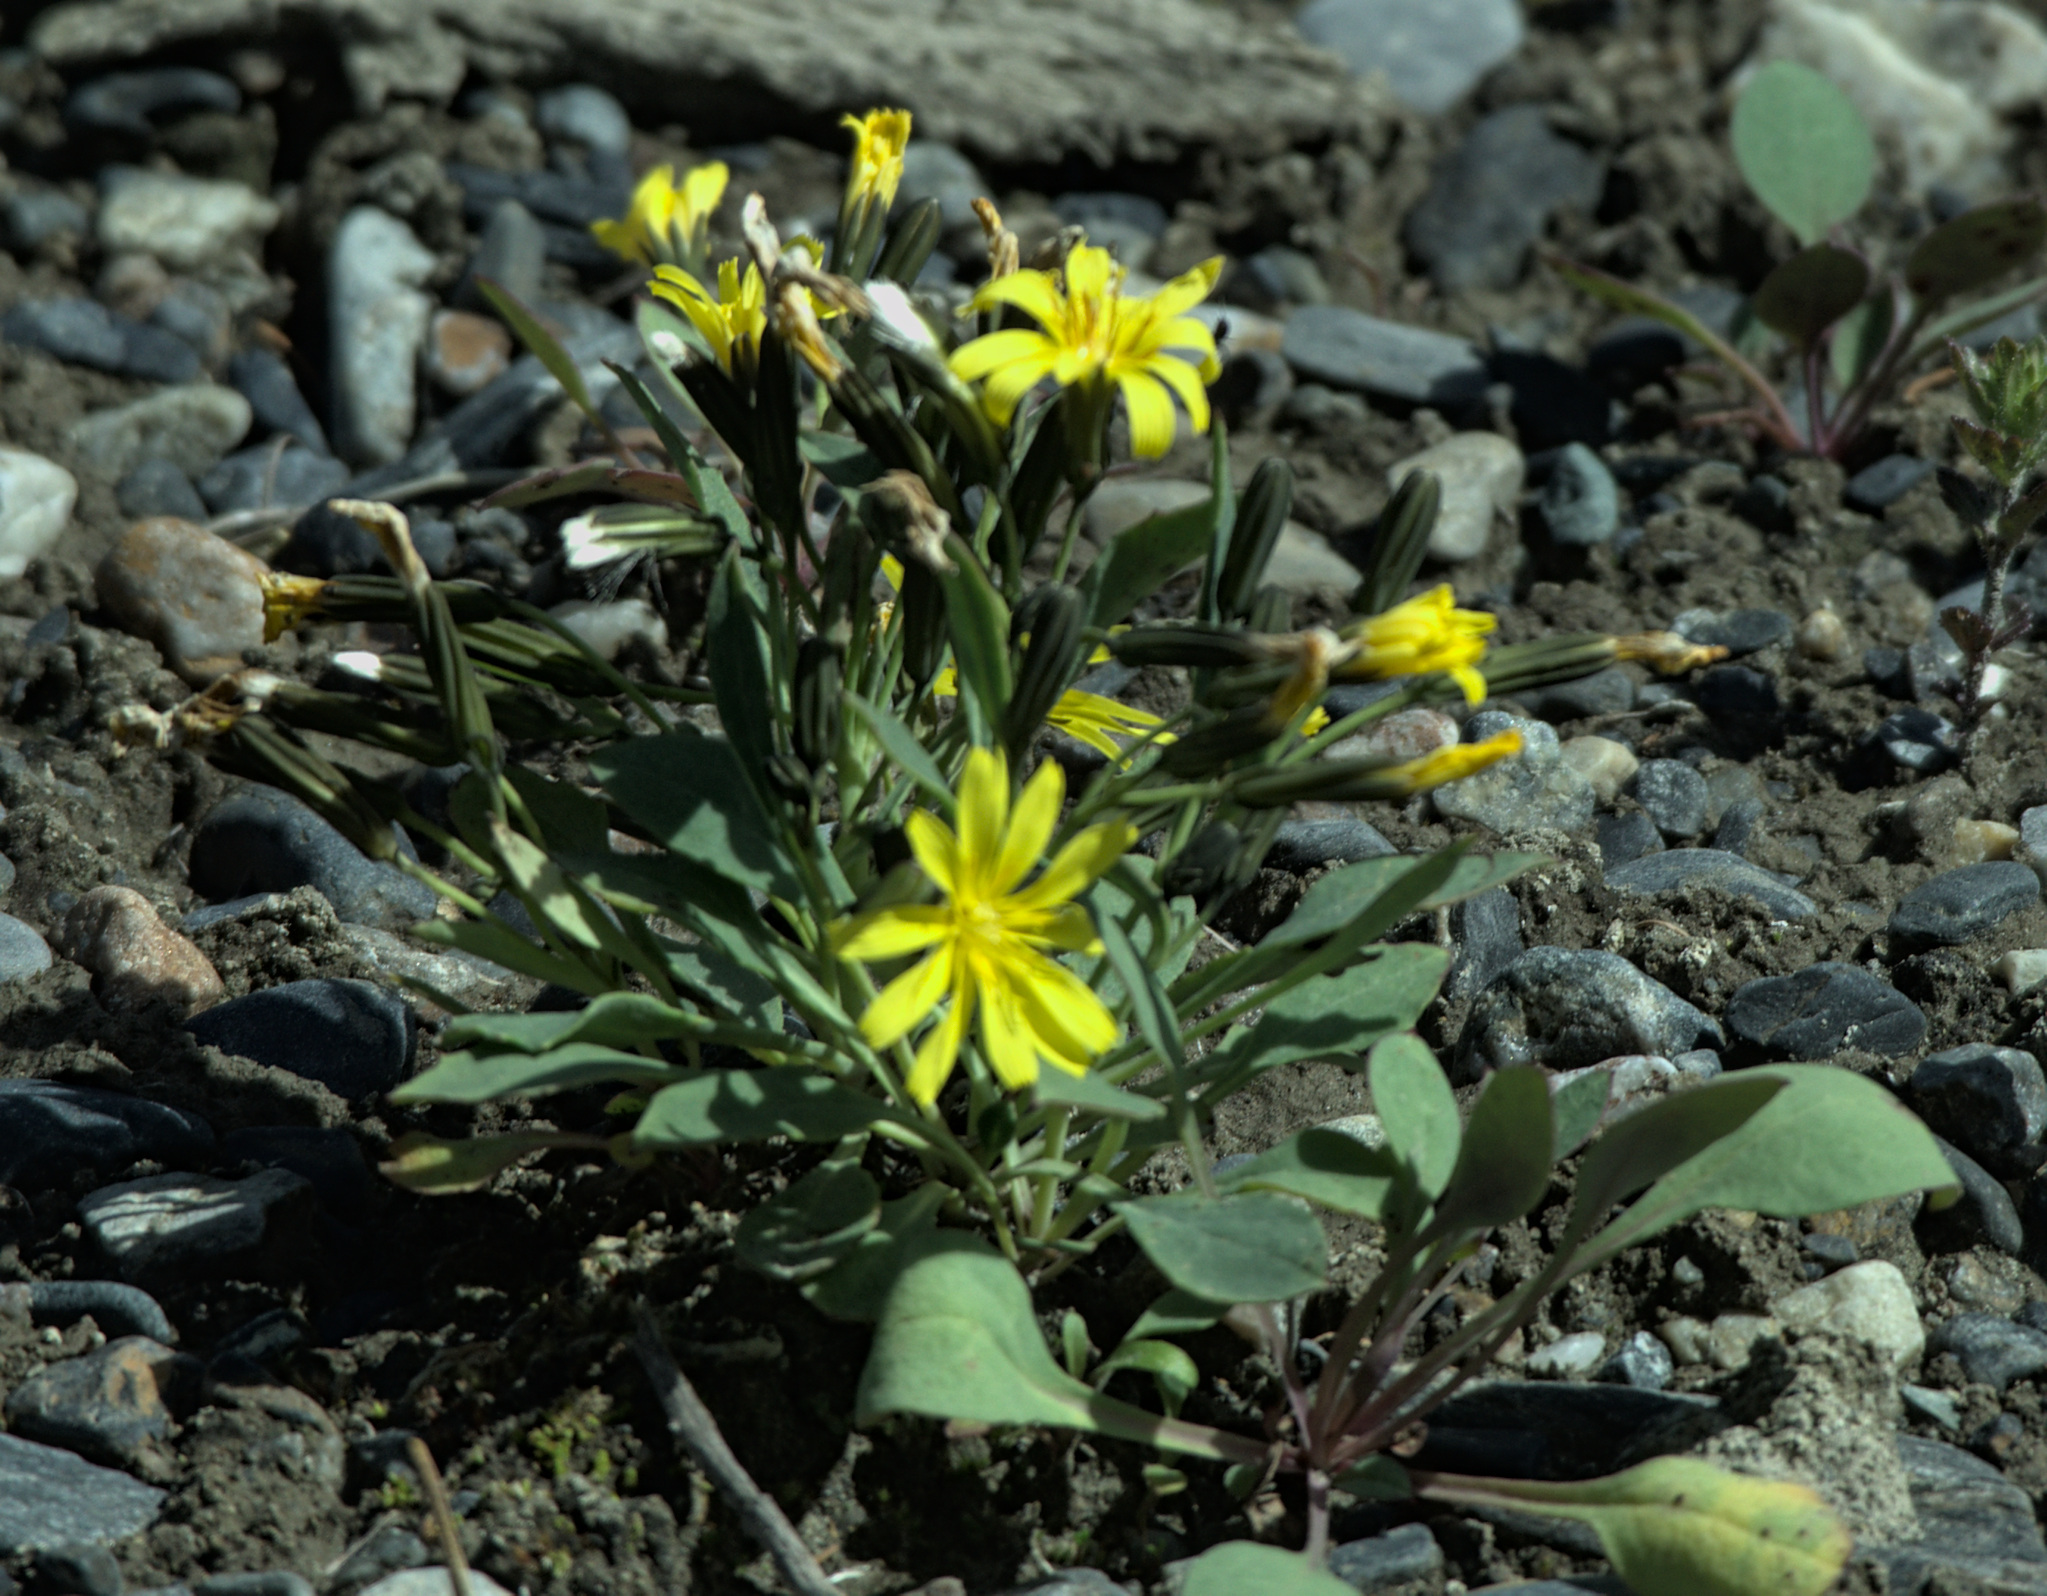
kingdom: Plantae
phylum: Tracheophyta
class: Magnoliopsida
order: Asterales
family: Asteraceae
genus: Askellia
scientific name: Askellia pygmaea
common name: Dwarf alpine hawksbeard
